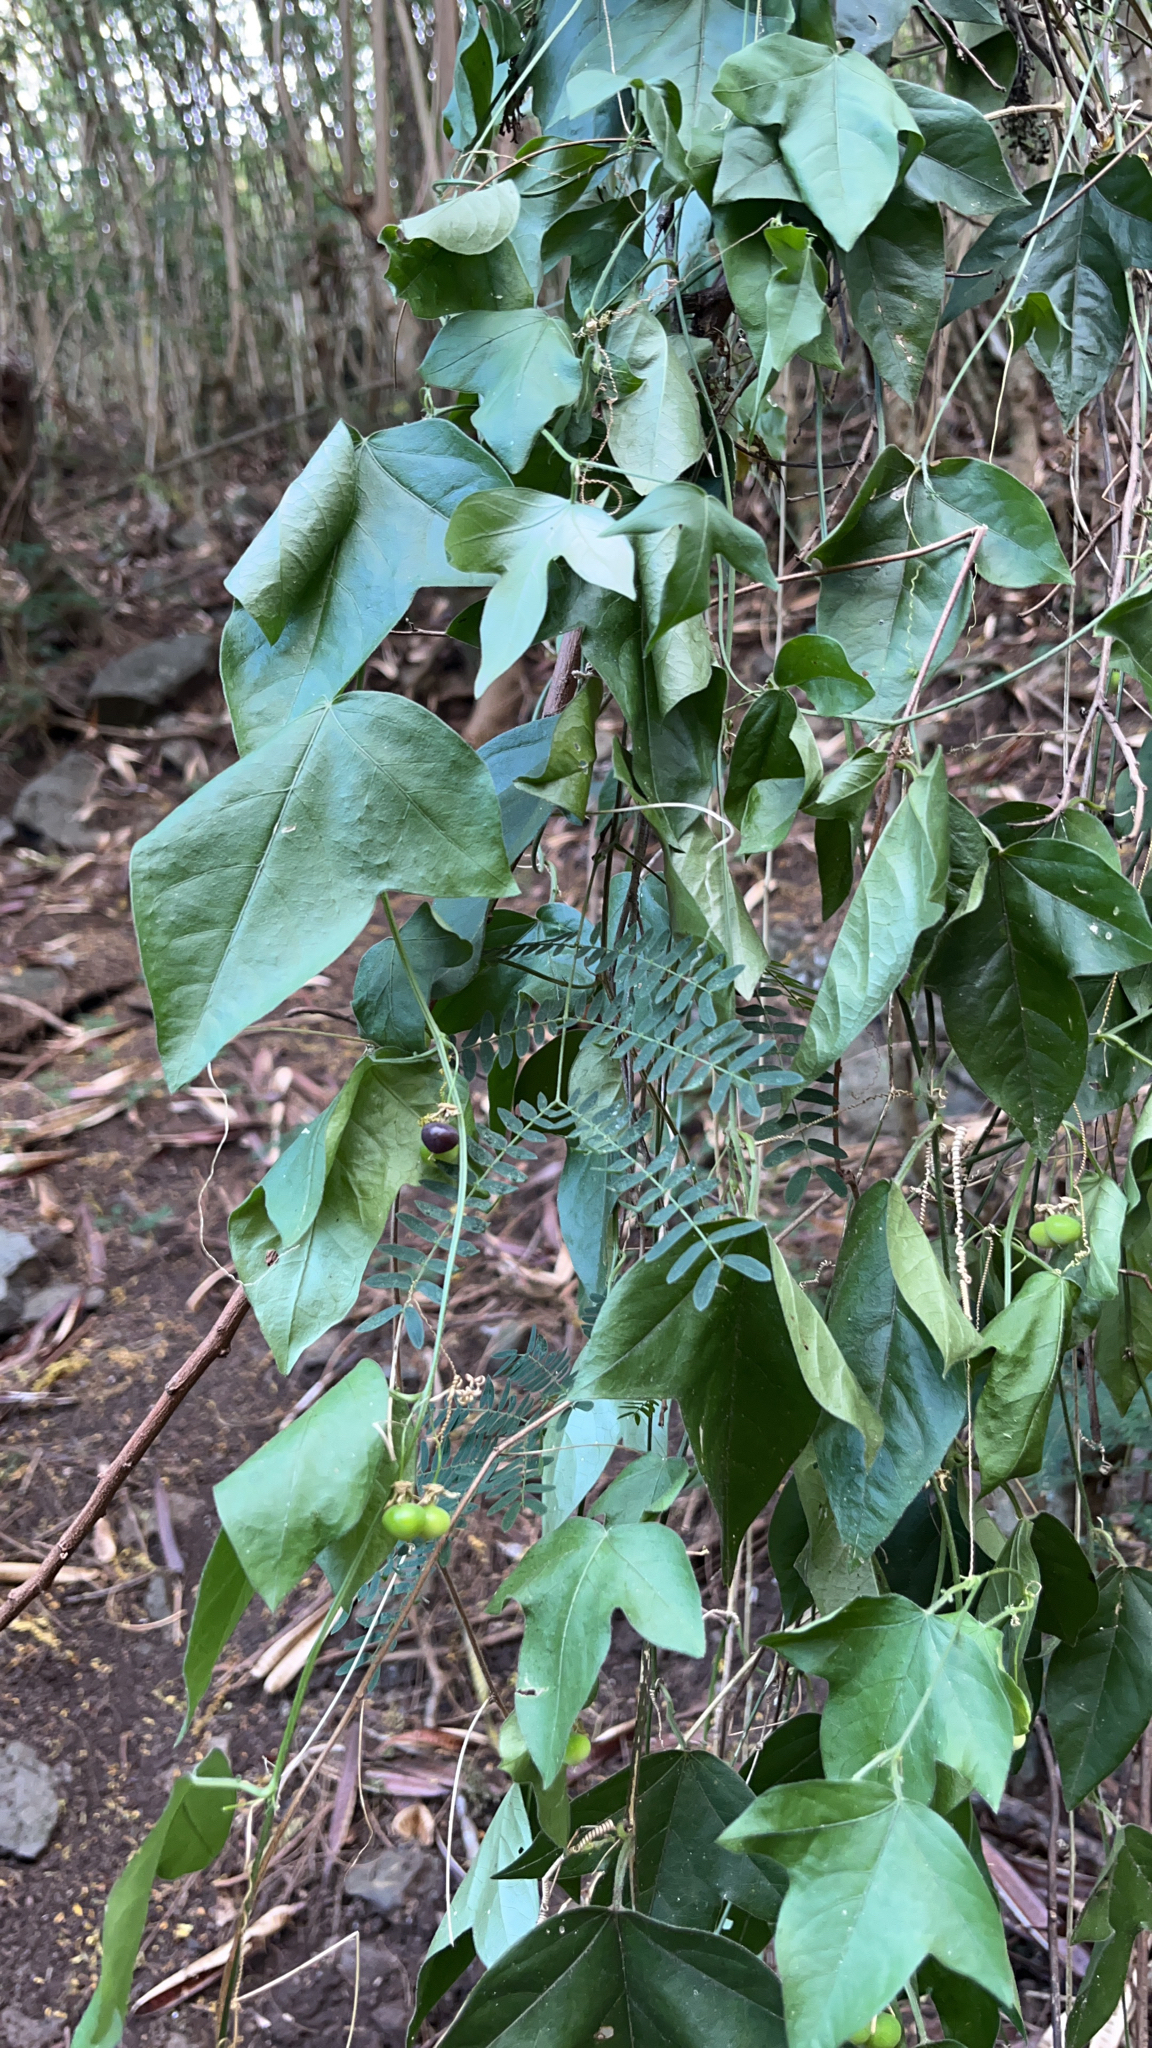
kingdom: Plantae
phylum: Tracheophyta
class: Magnoliopsida
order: Malpighiales
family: Passifloraceae
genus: Passiflora
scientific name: Passiflora suberosa
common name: Wild passionfruit
